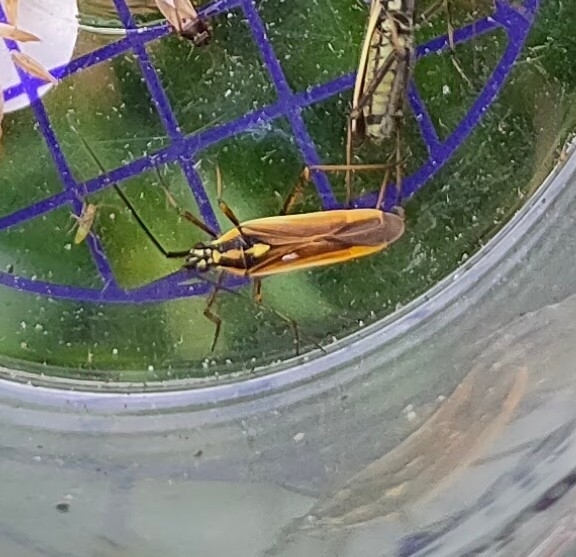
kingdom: Animalia
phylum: Arthropoda
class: Insecta
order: Hemiptera
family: Miridae
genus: Leptopterna
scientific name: Leptopterna dolabrata
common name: Meadow plant bug
